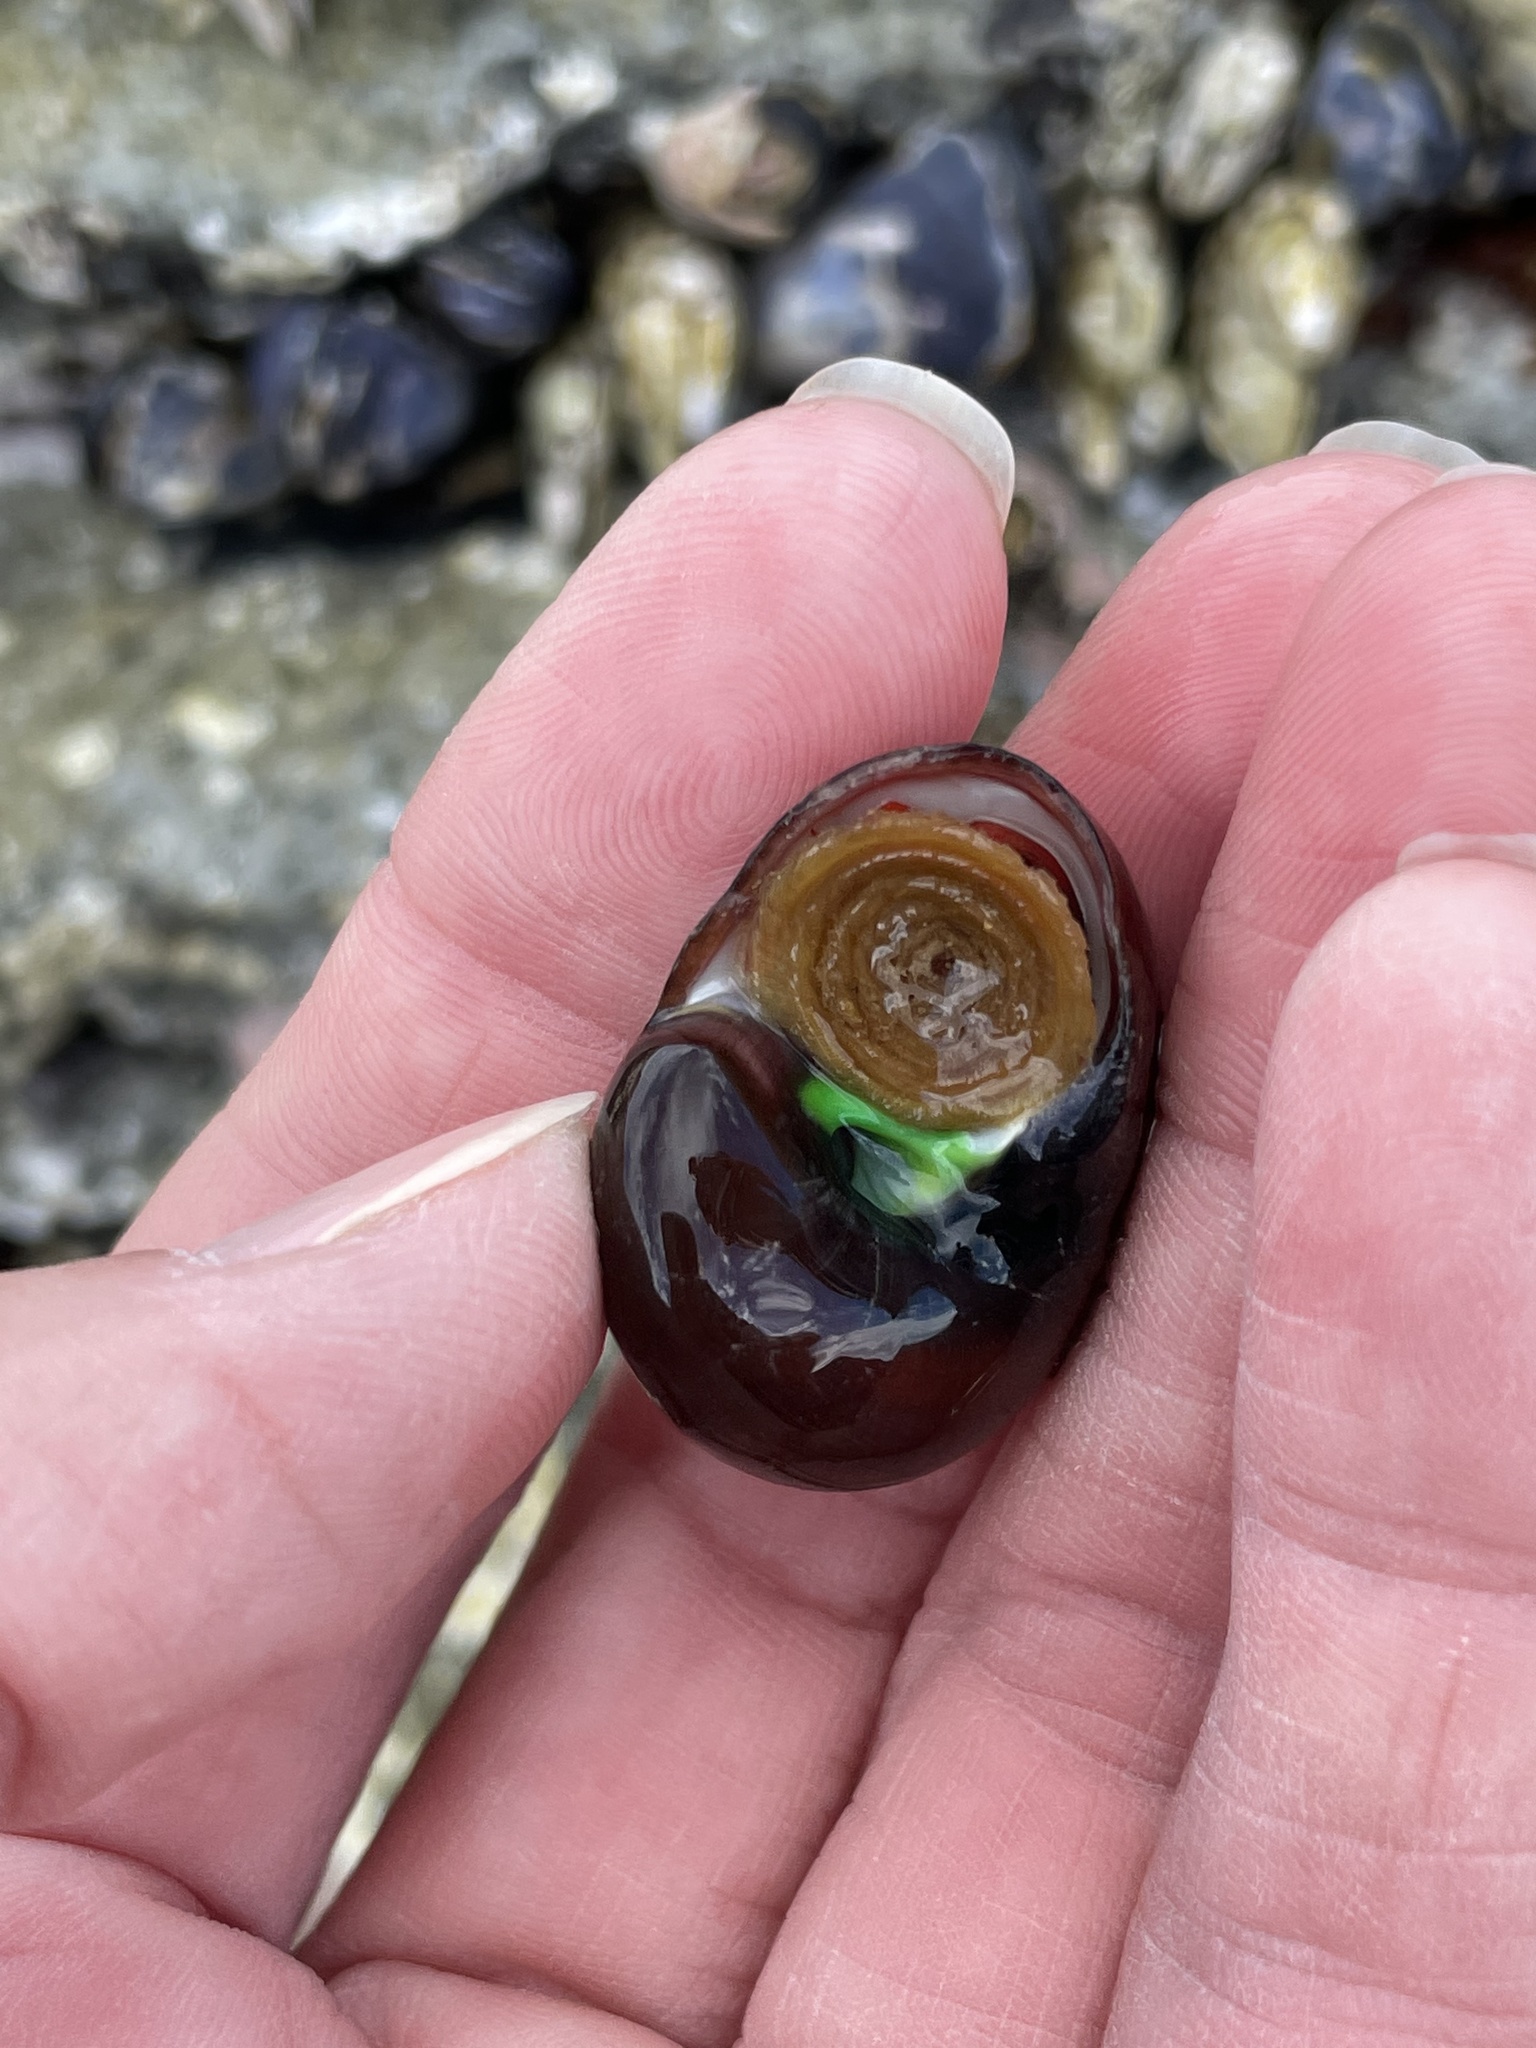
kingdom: Animalia
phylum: Mollusca
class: Gastropoda
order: Trochida
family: Tegulidae
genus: Norrisia
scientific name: Norrisia norrisii
